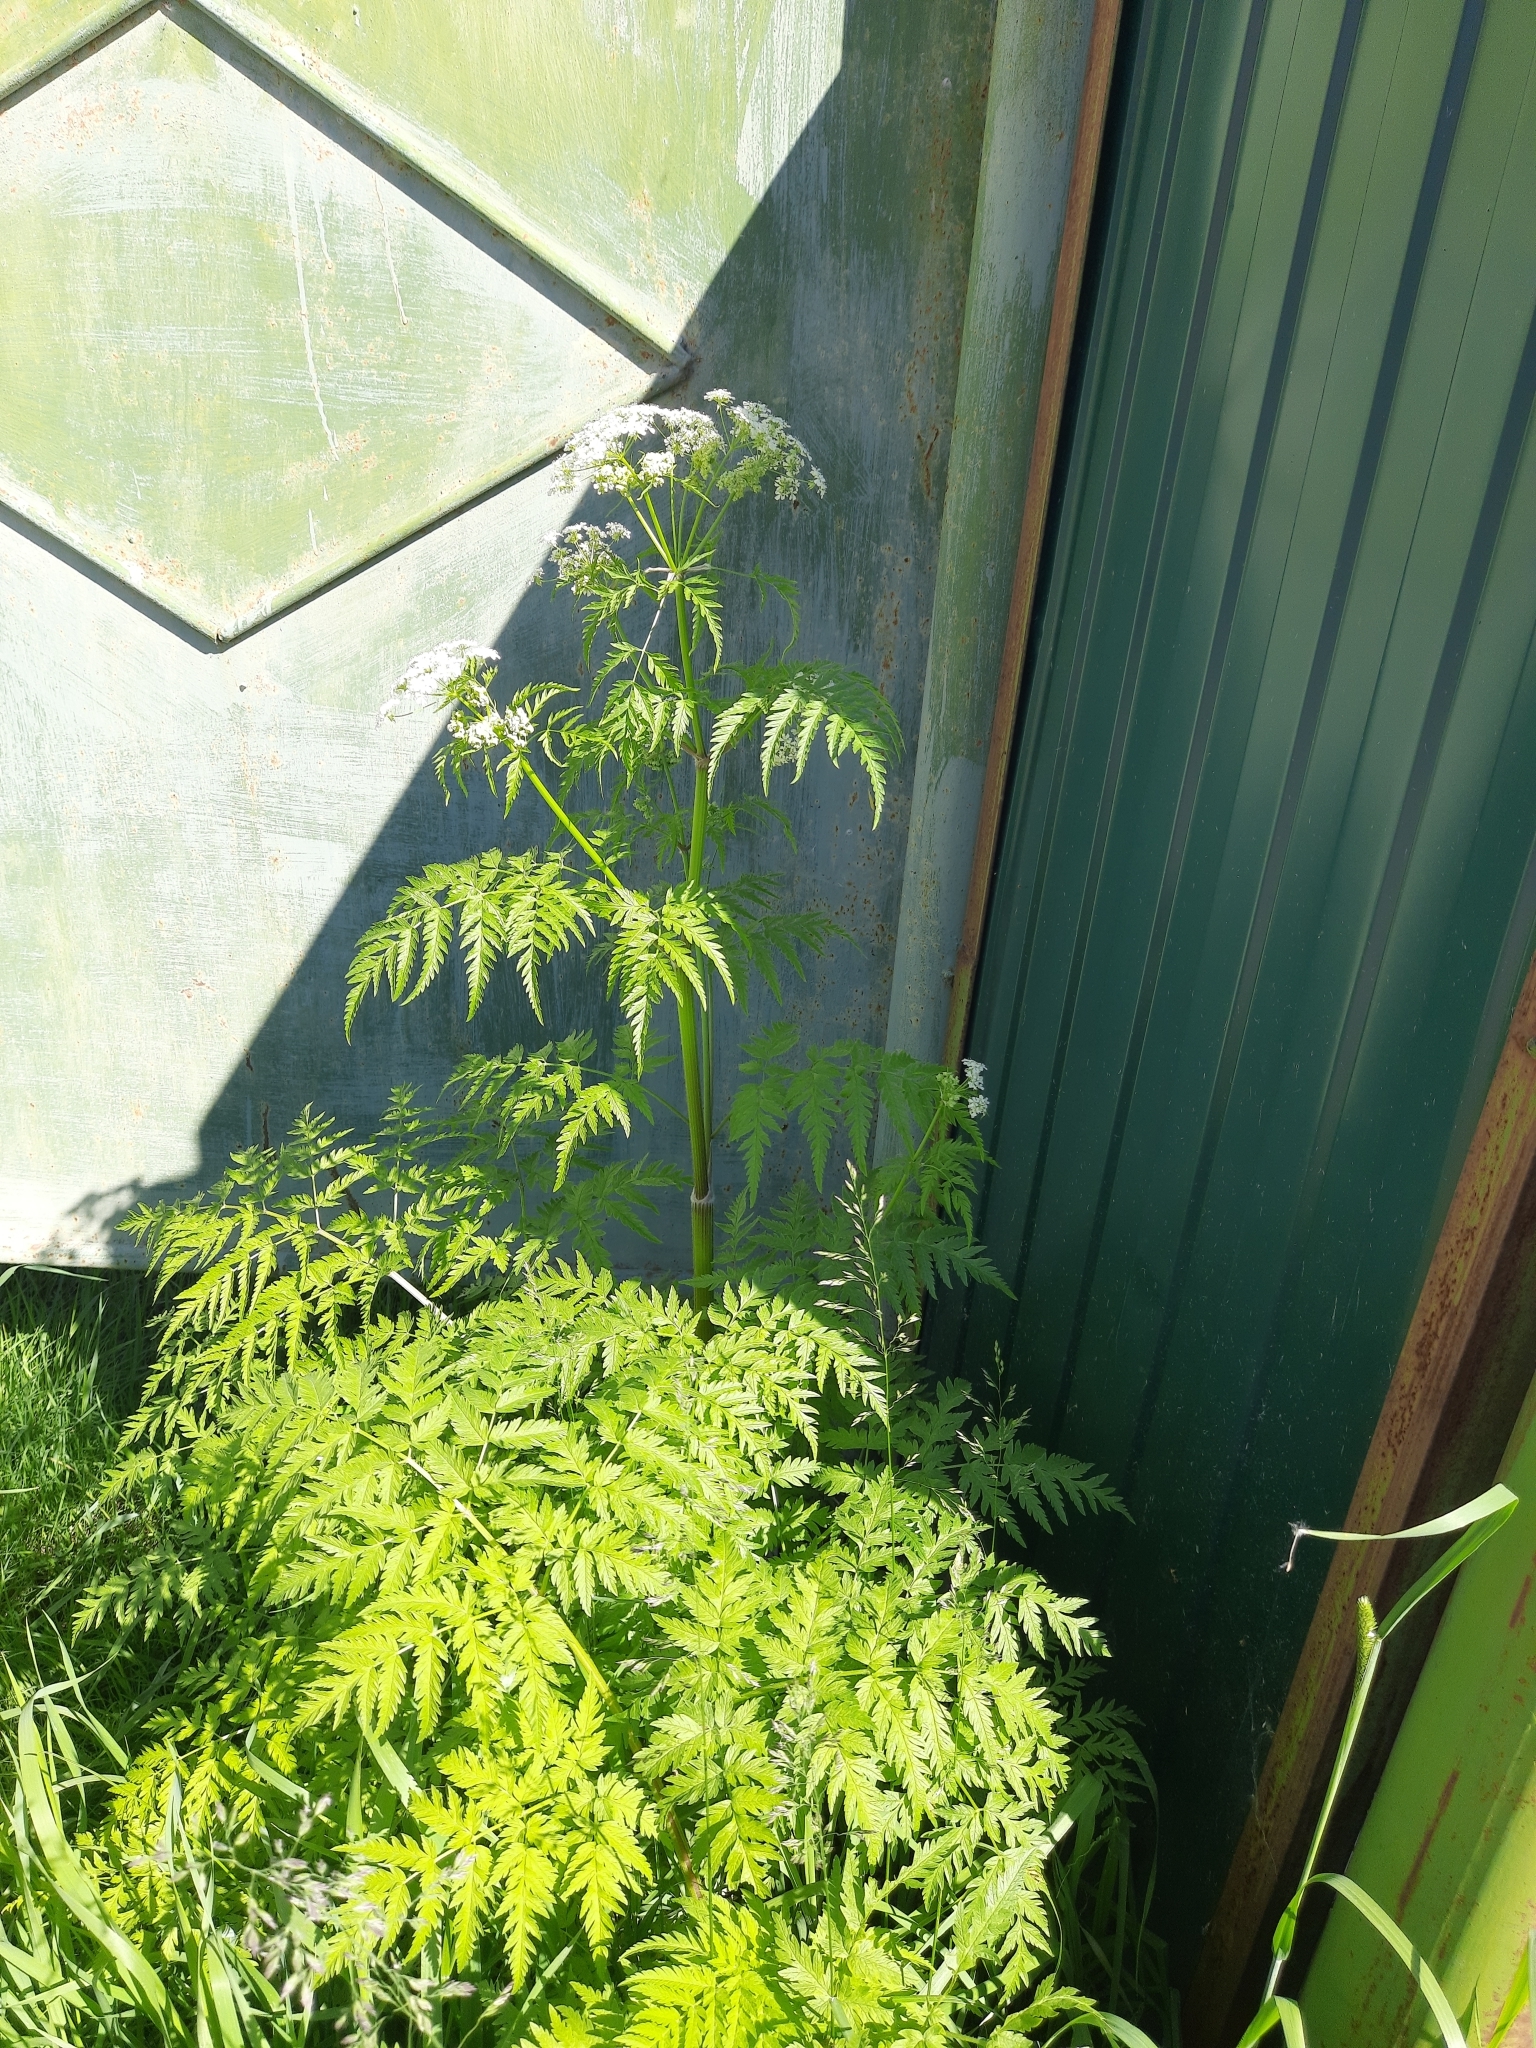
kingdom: Plantae
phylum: Tracheophyta
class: Magnoliopsida
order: Apiales
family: Apiaceae
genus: Anthriscus
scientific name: Anthriscus sylvestris
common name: Cow parsley
